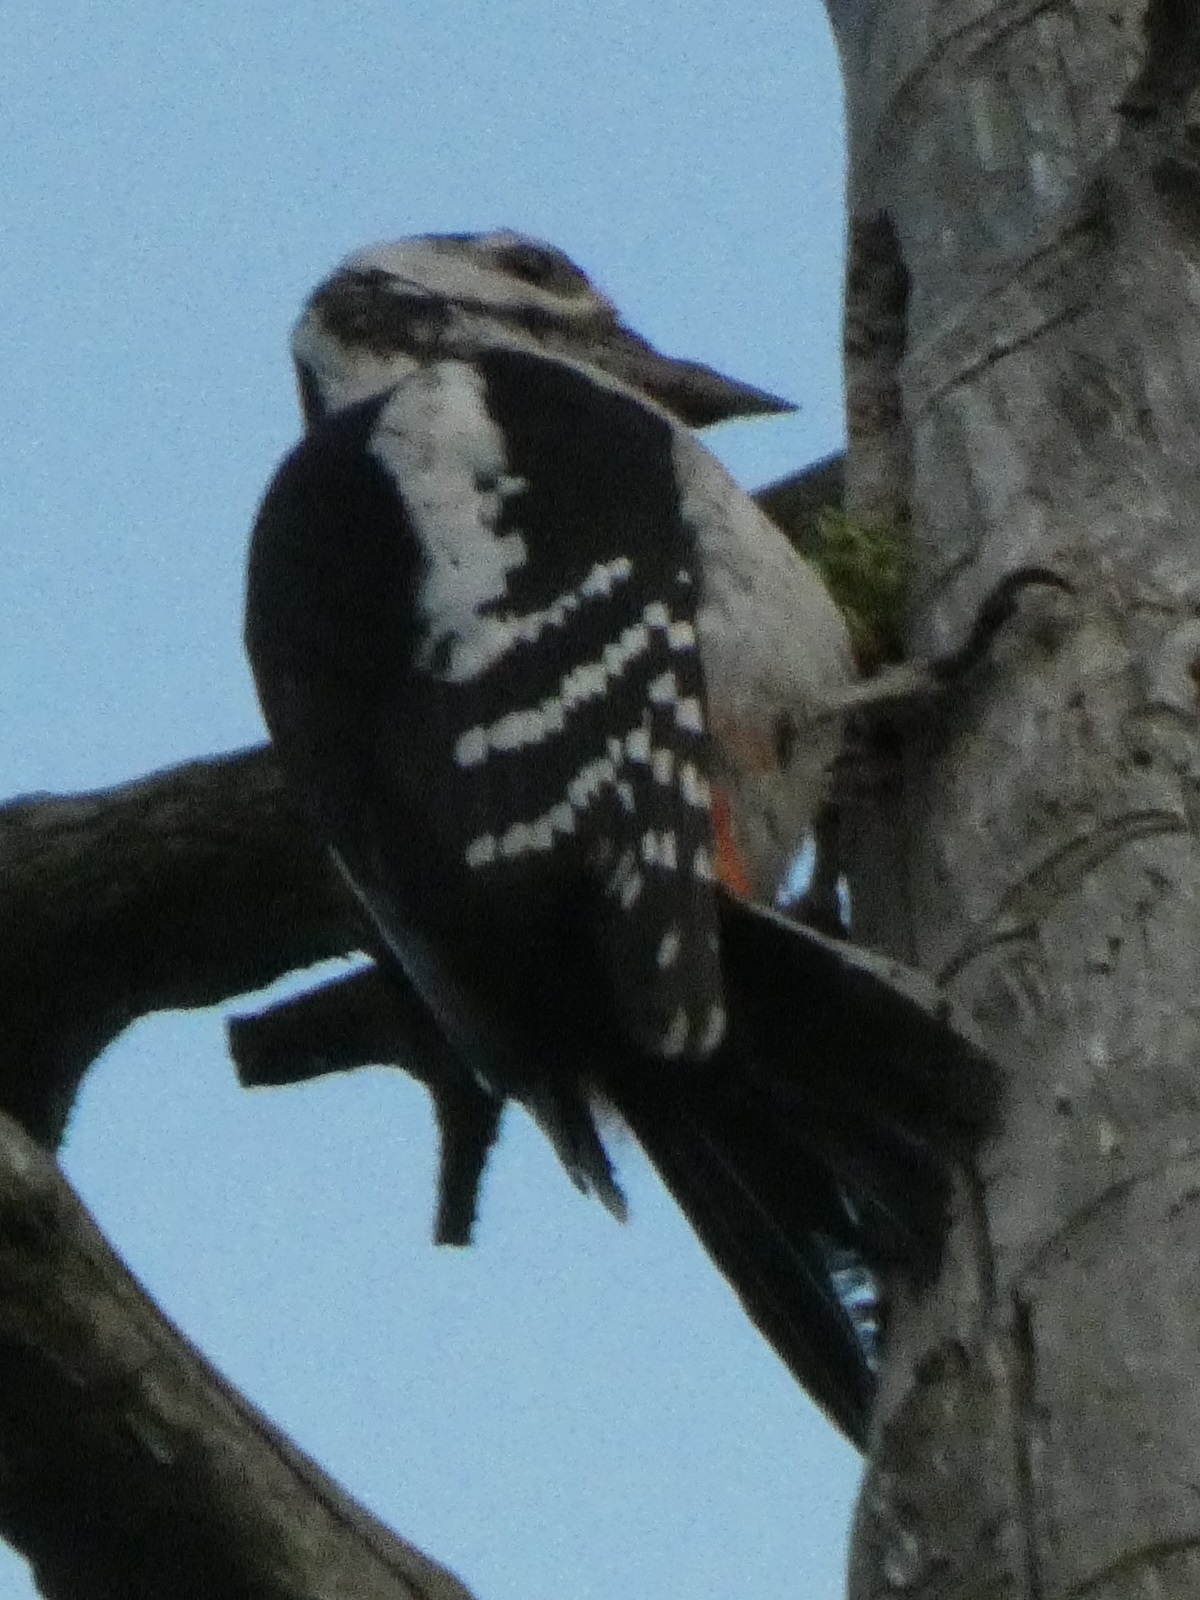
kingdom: Animalia
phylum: Chordata
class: Aves
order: Piciformes
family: Picidae
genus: Dendrocopos
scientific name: Dendrocopos major
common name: Great spotted woodpecker
